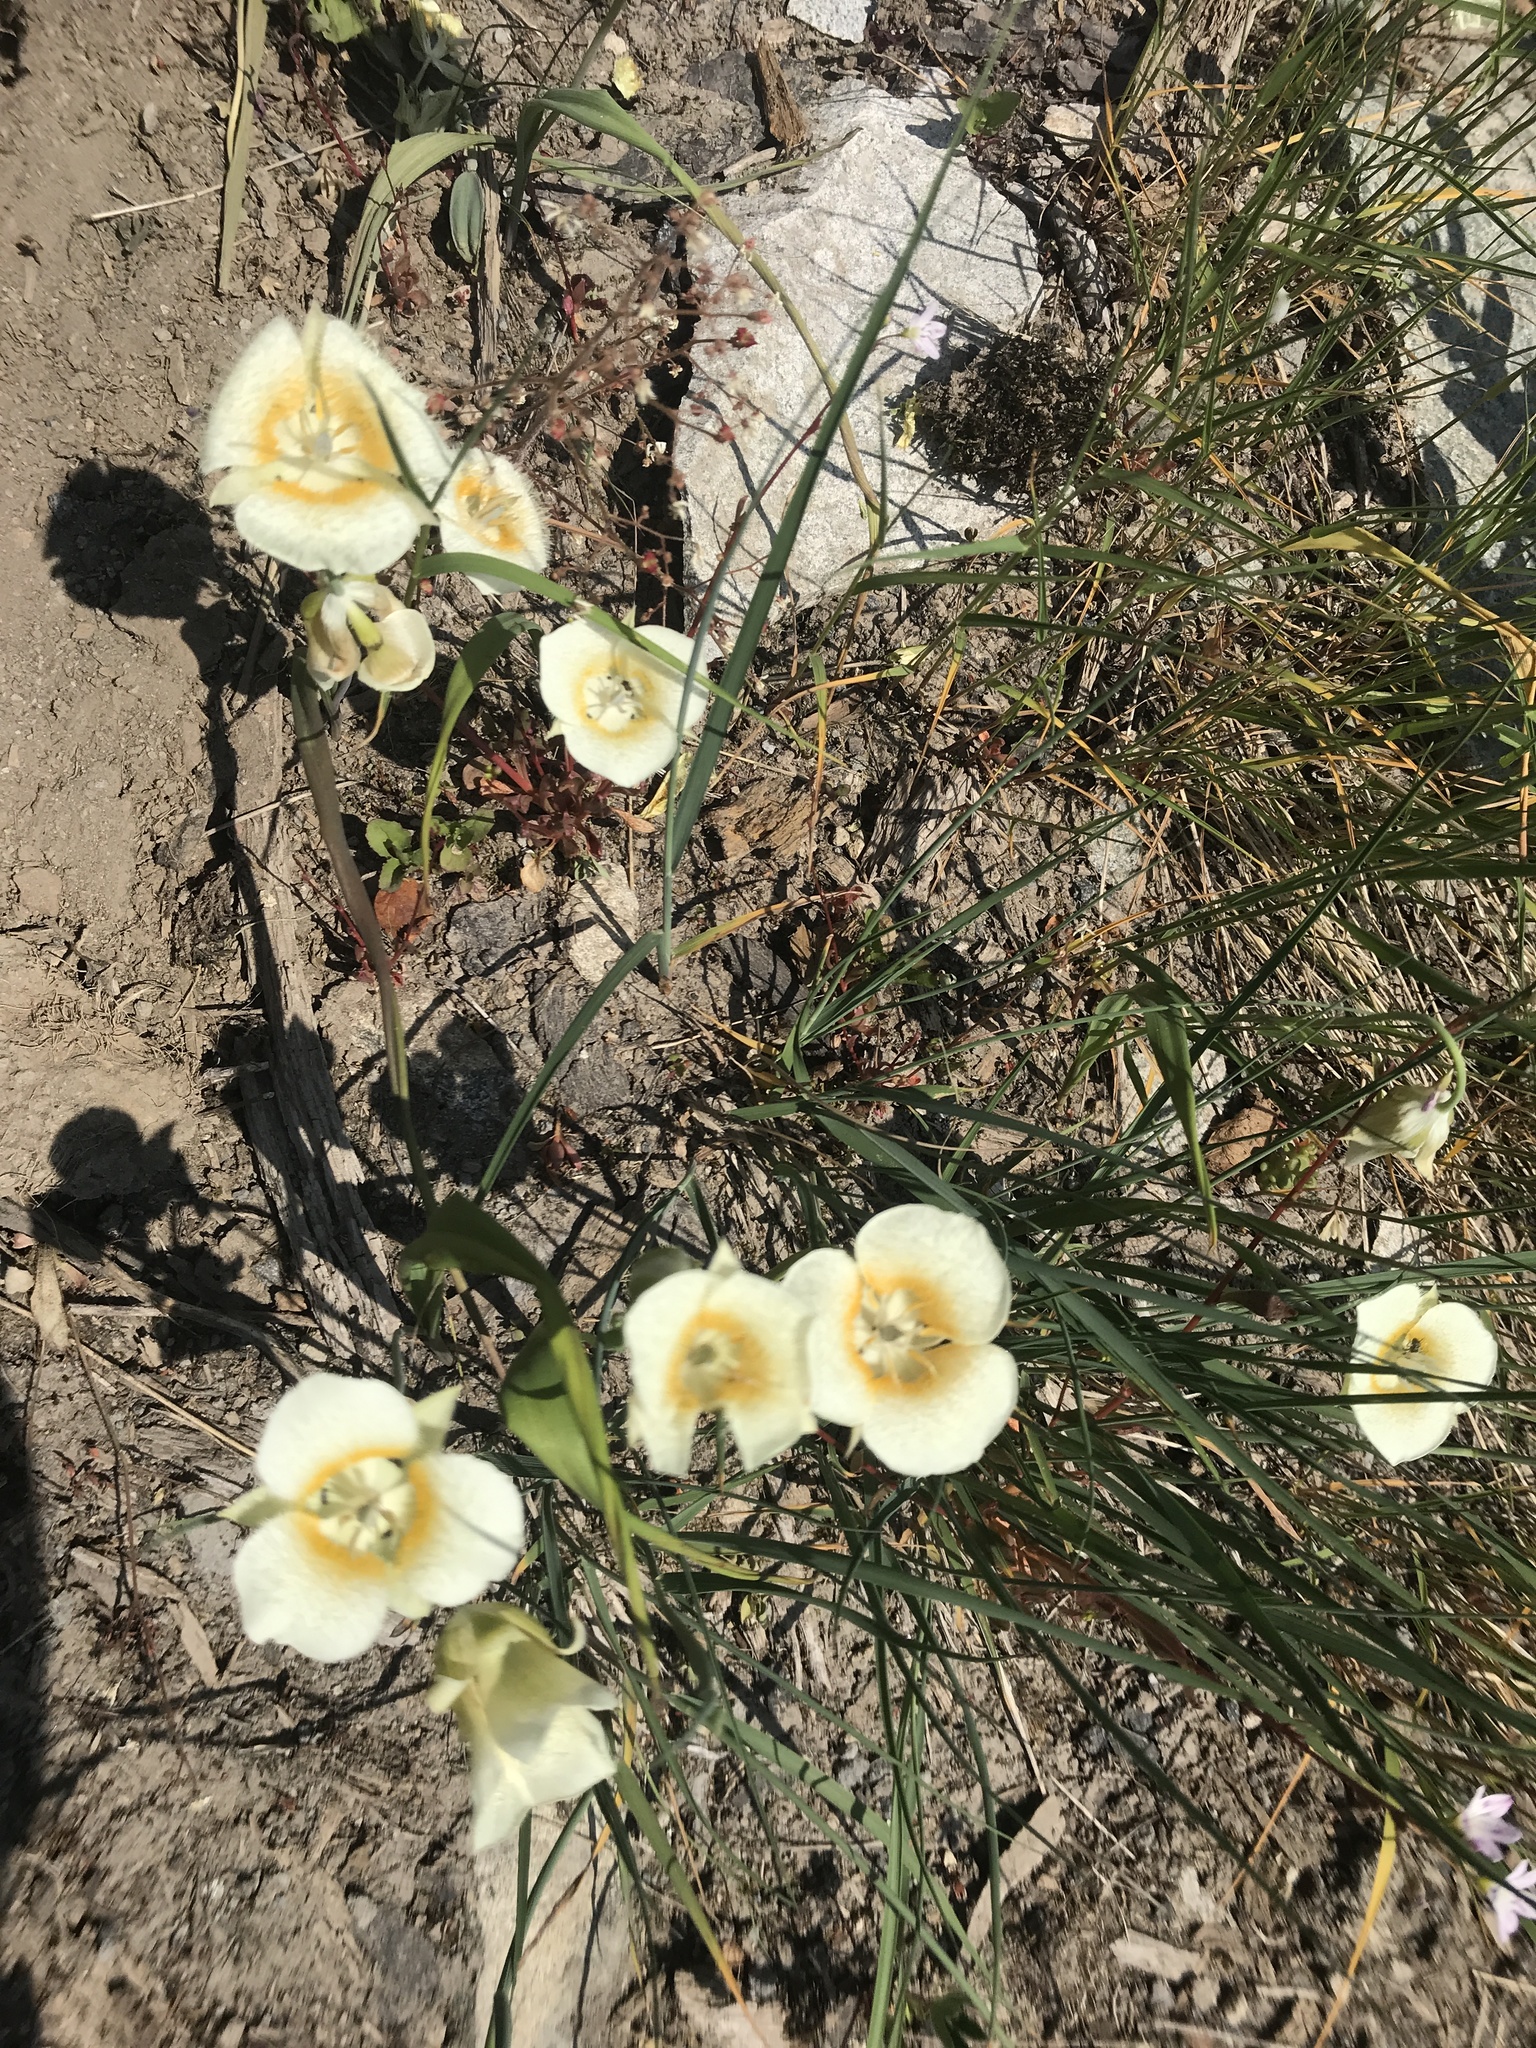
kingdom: Plantae
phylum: Tracheophyta
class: Liliopsida
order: Liliales
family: Liliaceae
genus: Calochortus
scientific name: Calochortus subalpinus
